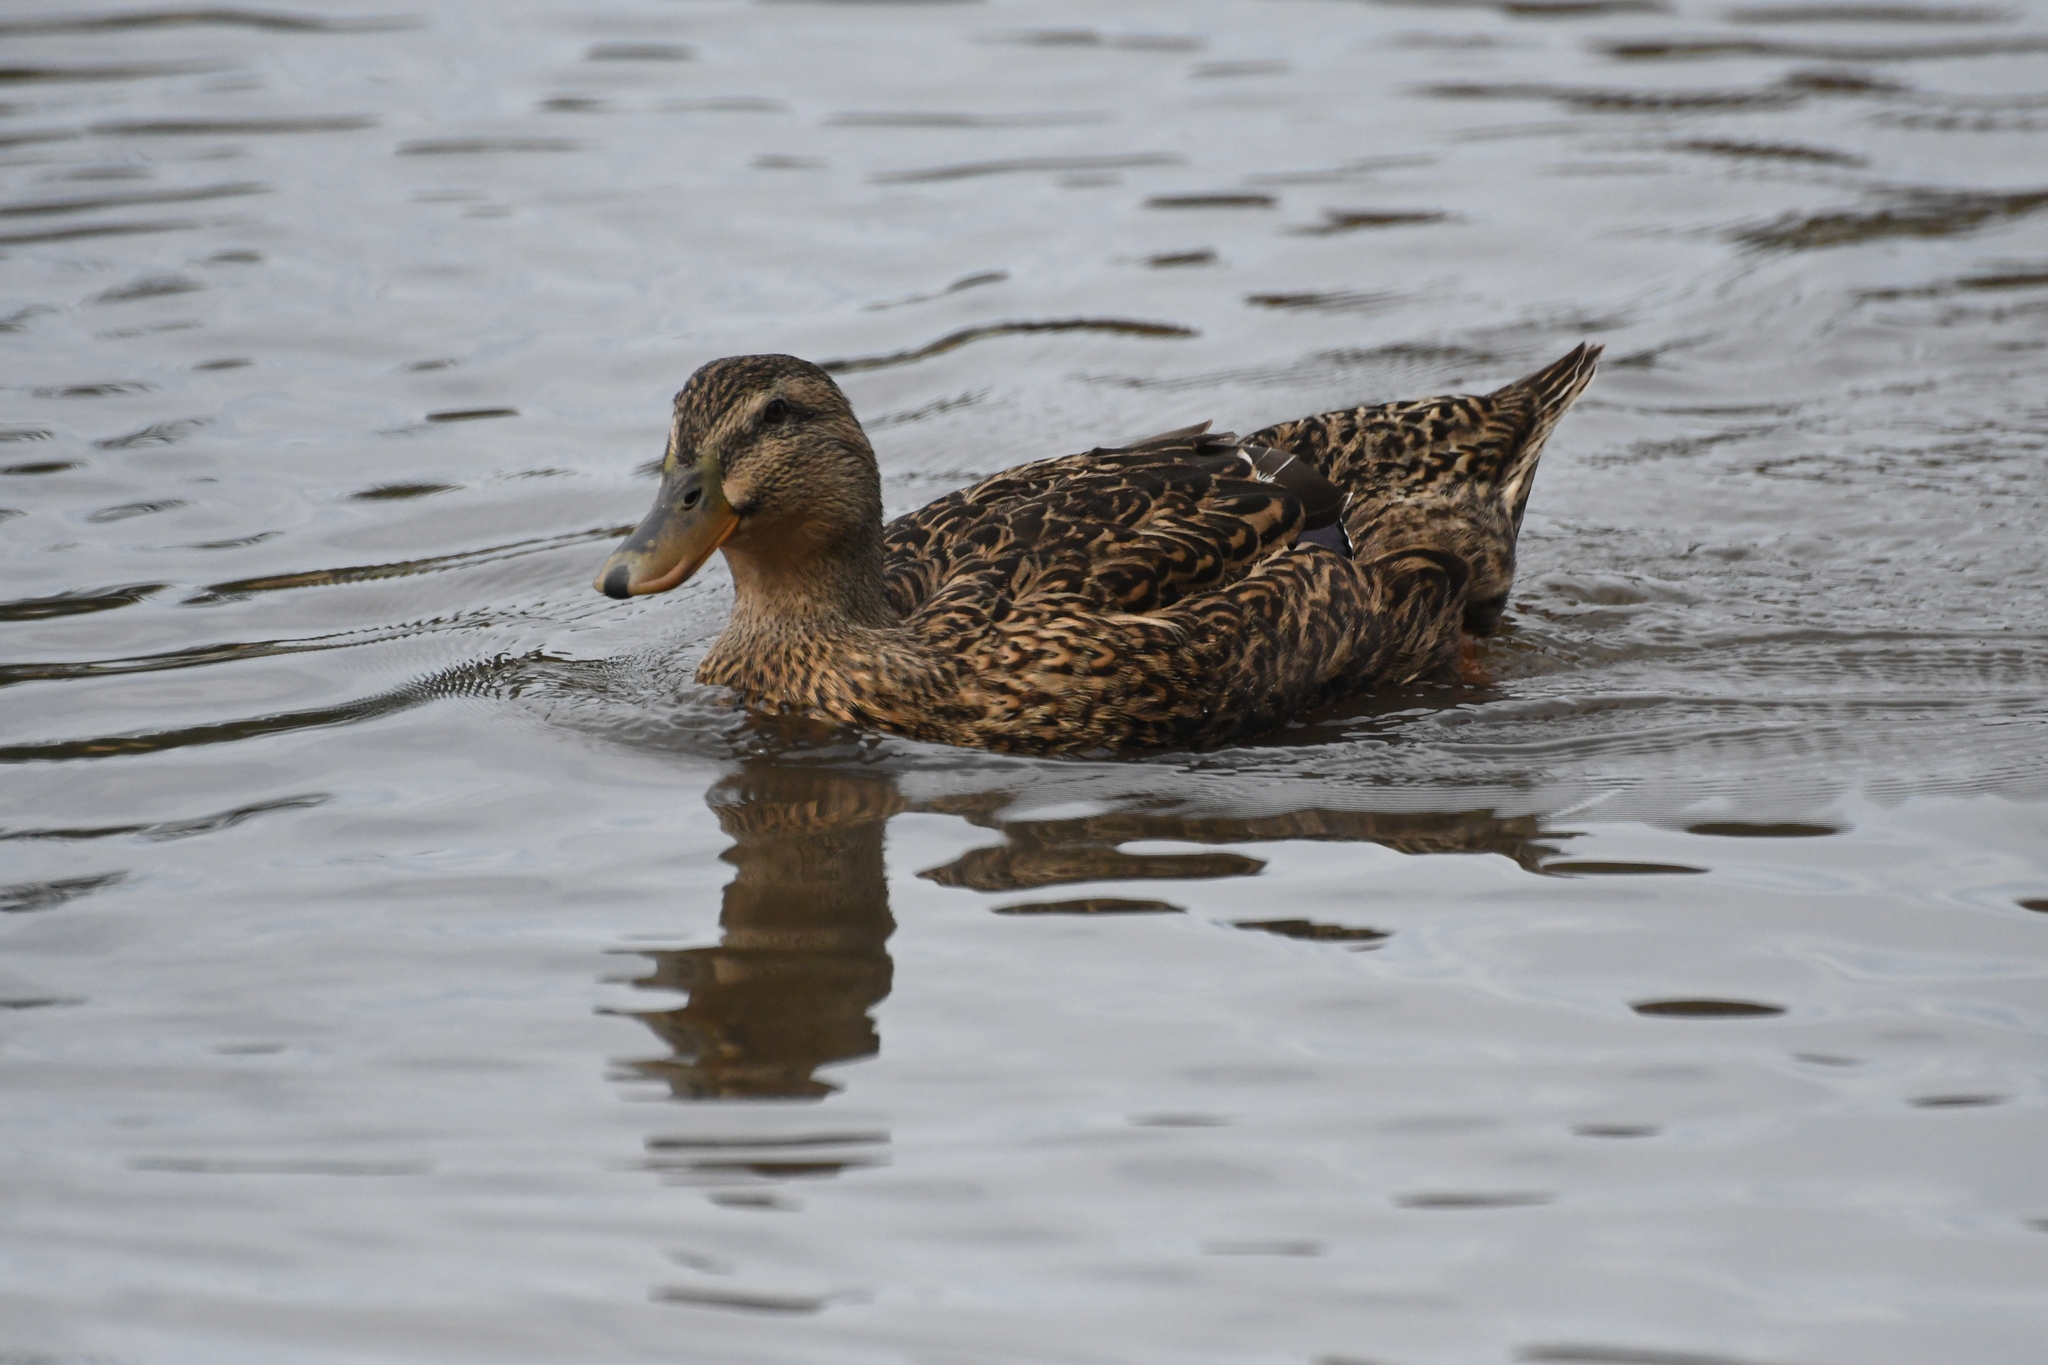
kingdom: Animalia
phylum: Chordata
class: Aves
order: Anseriformes
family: Anatidae
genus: Anas
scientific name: Anas platyrhynchos
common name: Mallard
